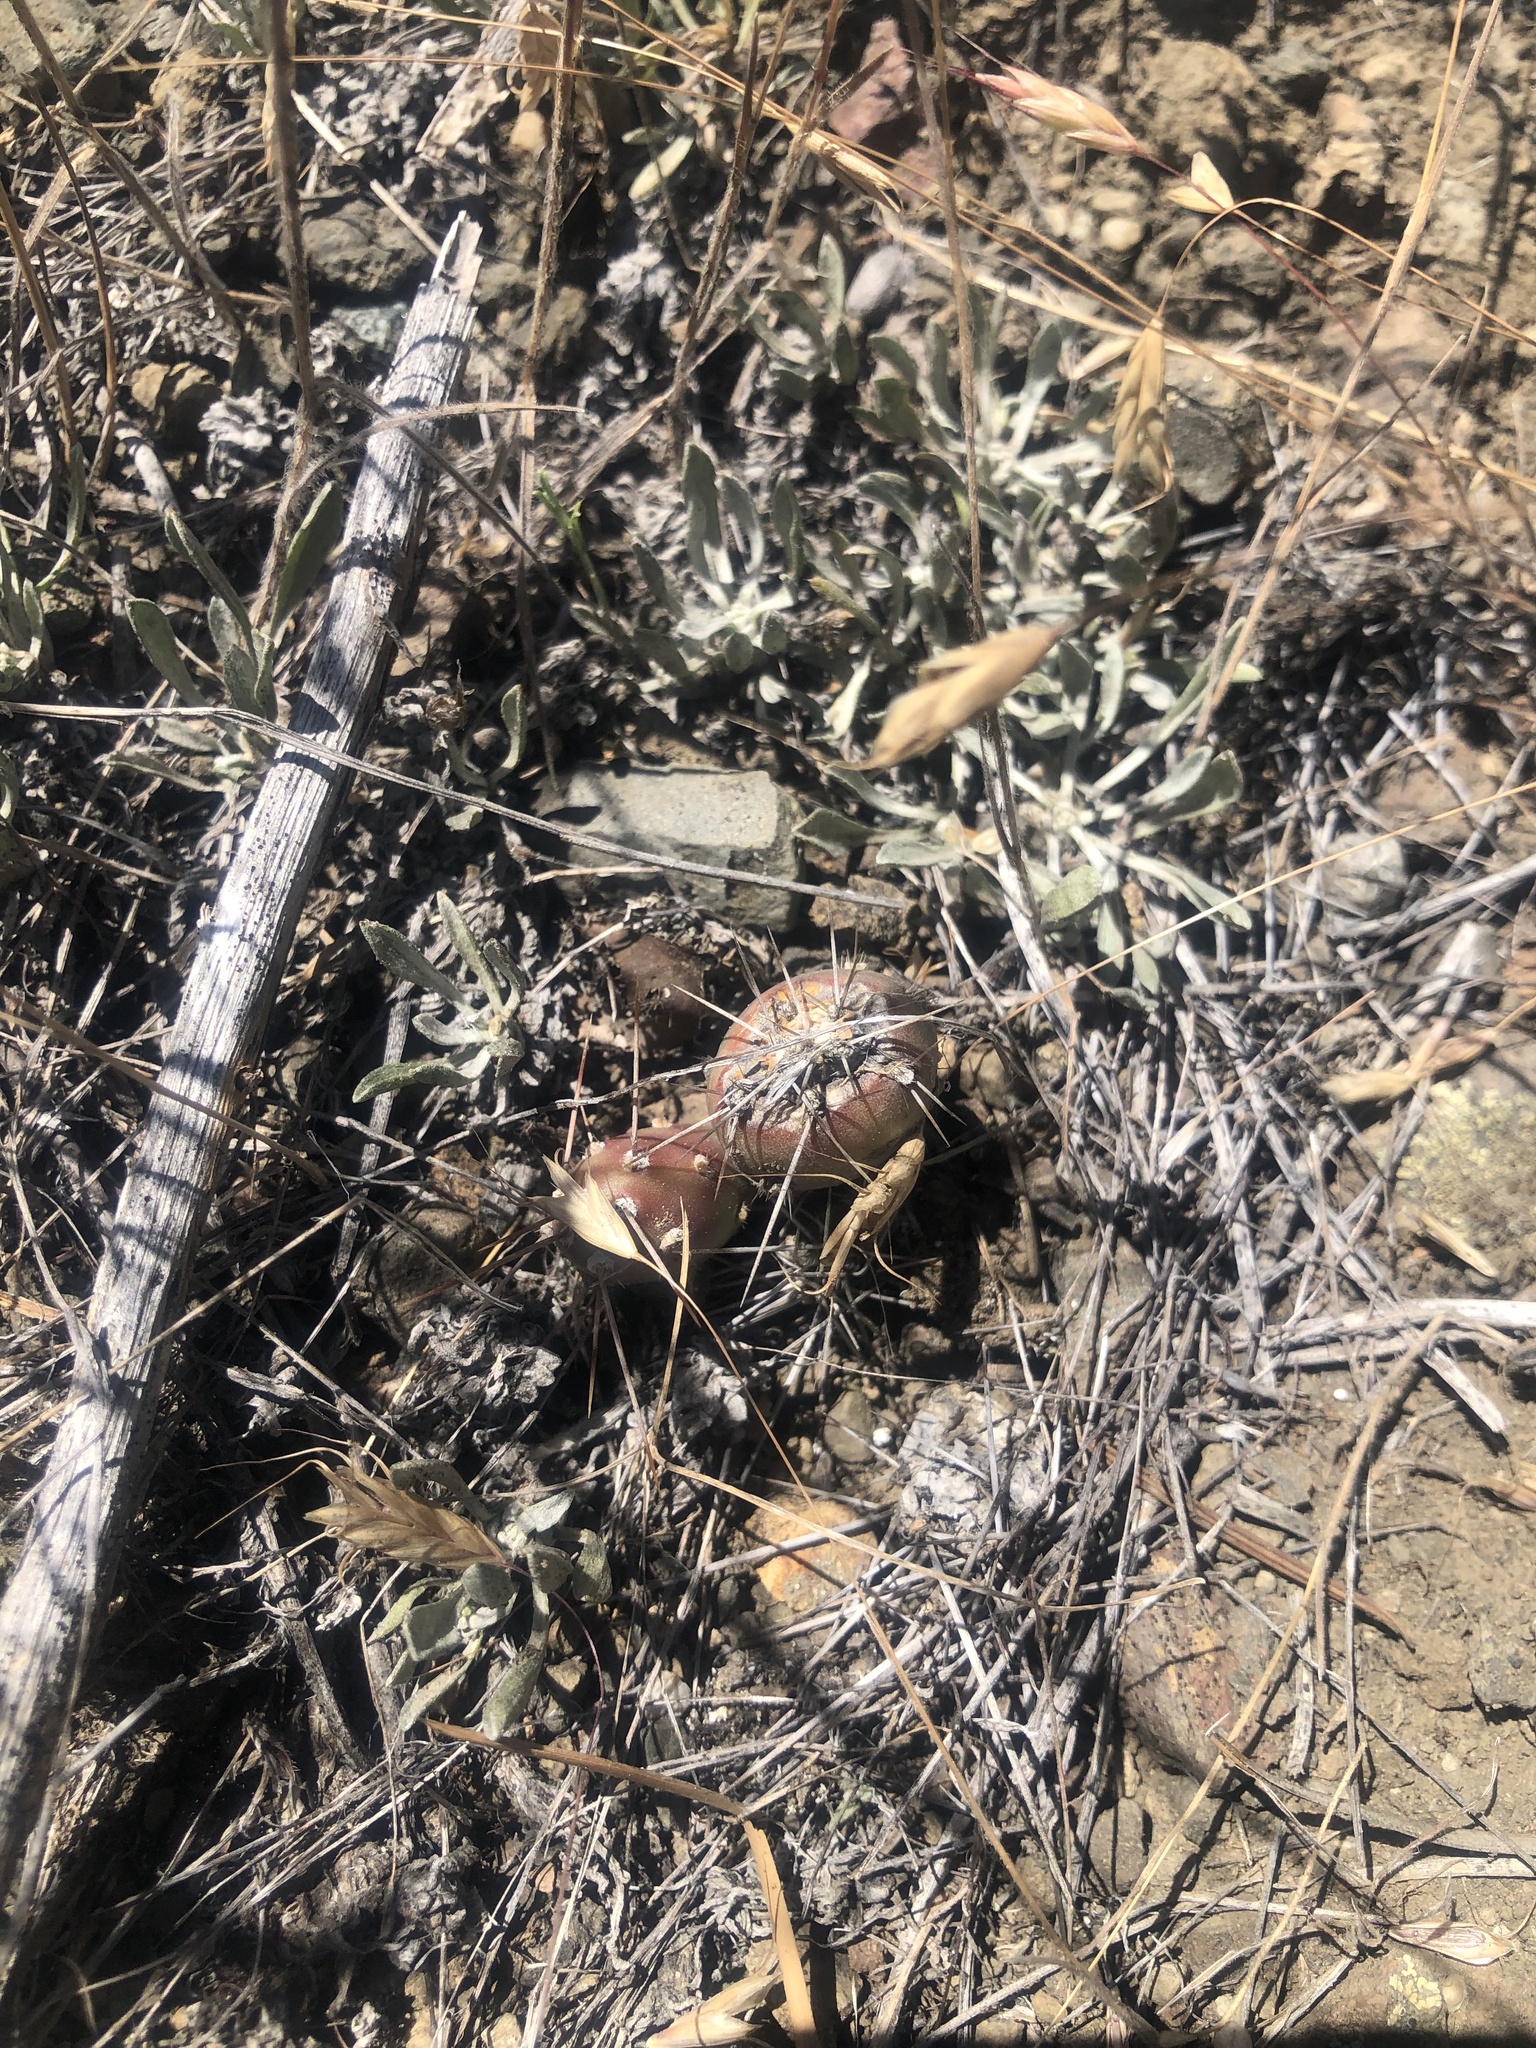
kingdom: Plantae
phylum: Tracheophyta
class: Magnoliopsida
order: Caryophyllales
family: Cactaceae
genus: Opuntia
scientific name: Opuntia fragilis
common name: Brittle cactus
